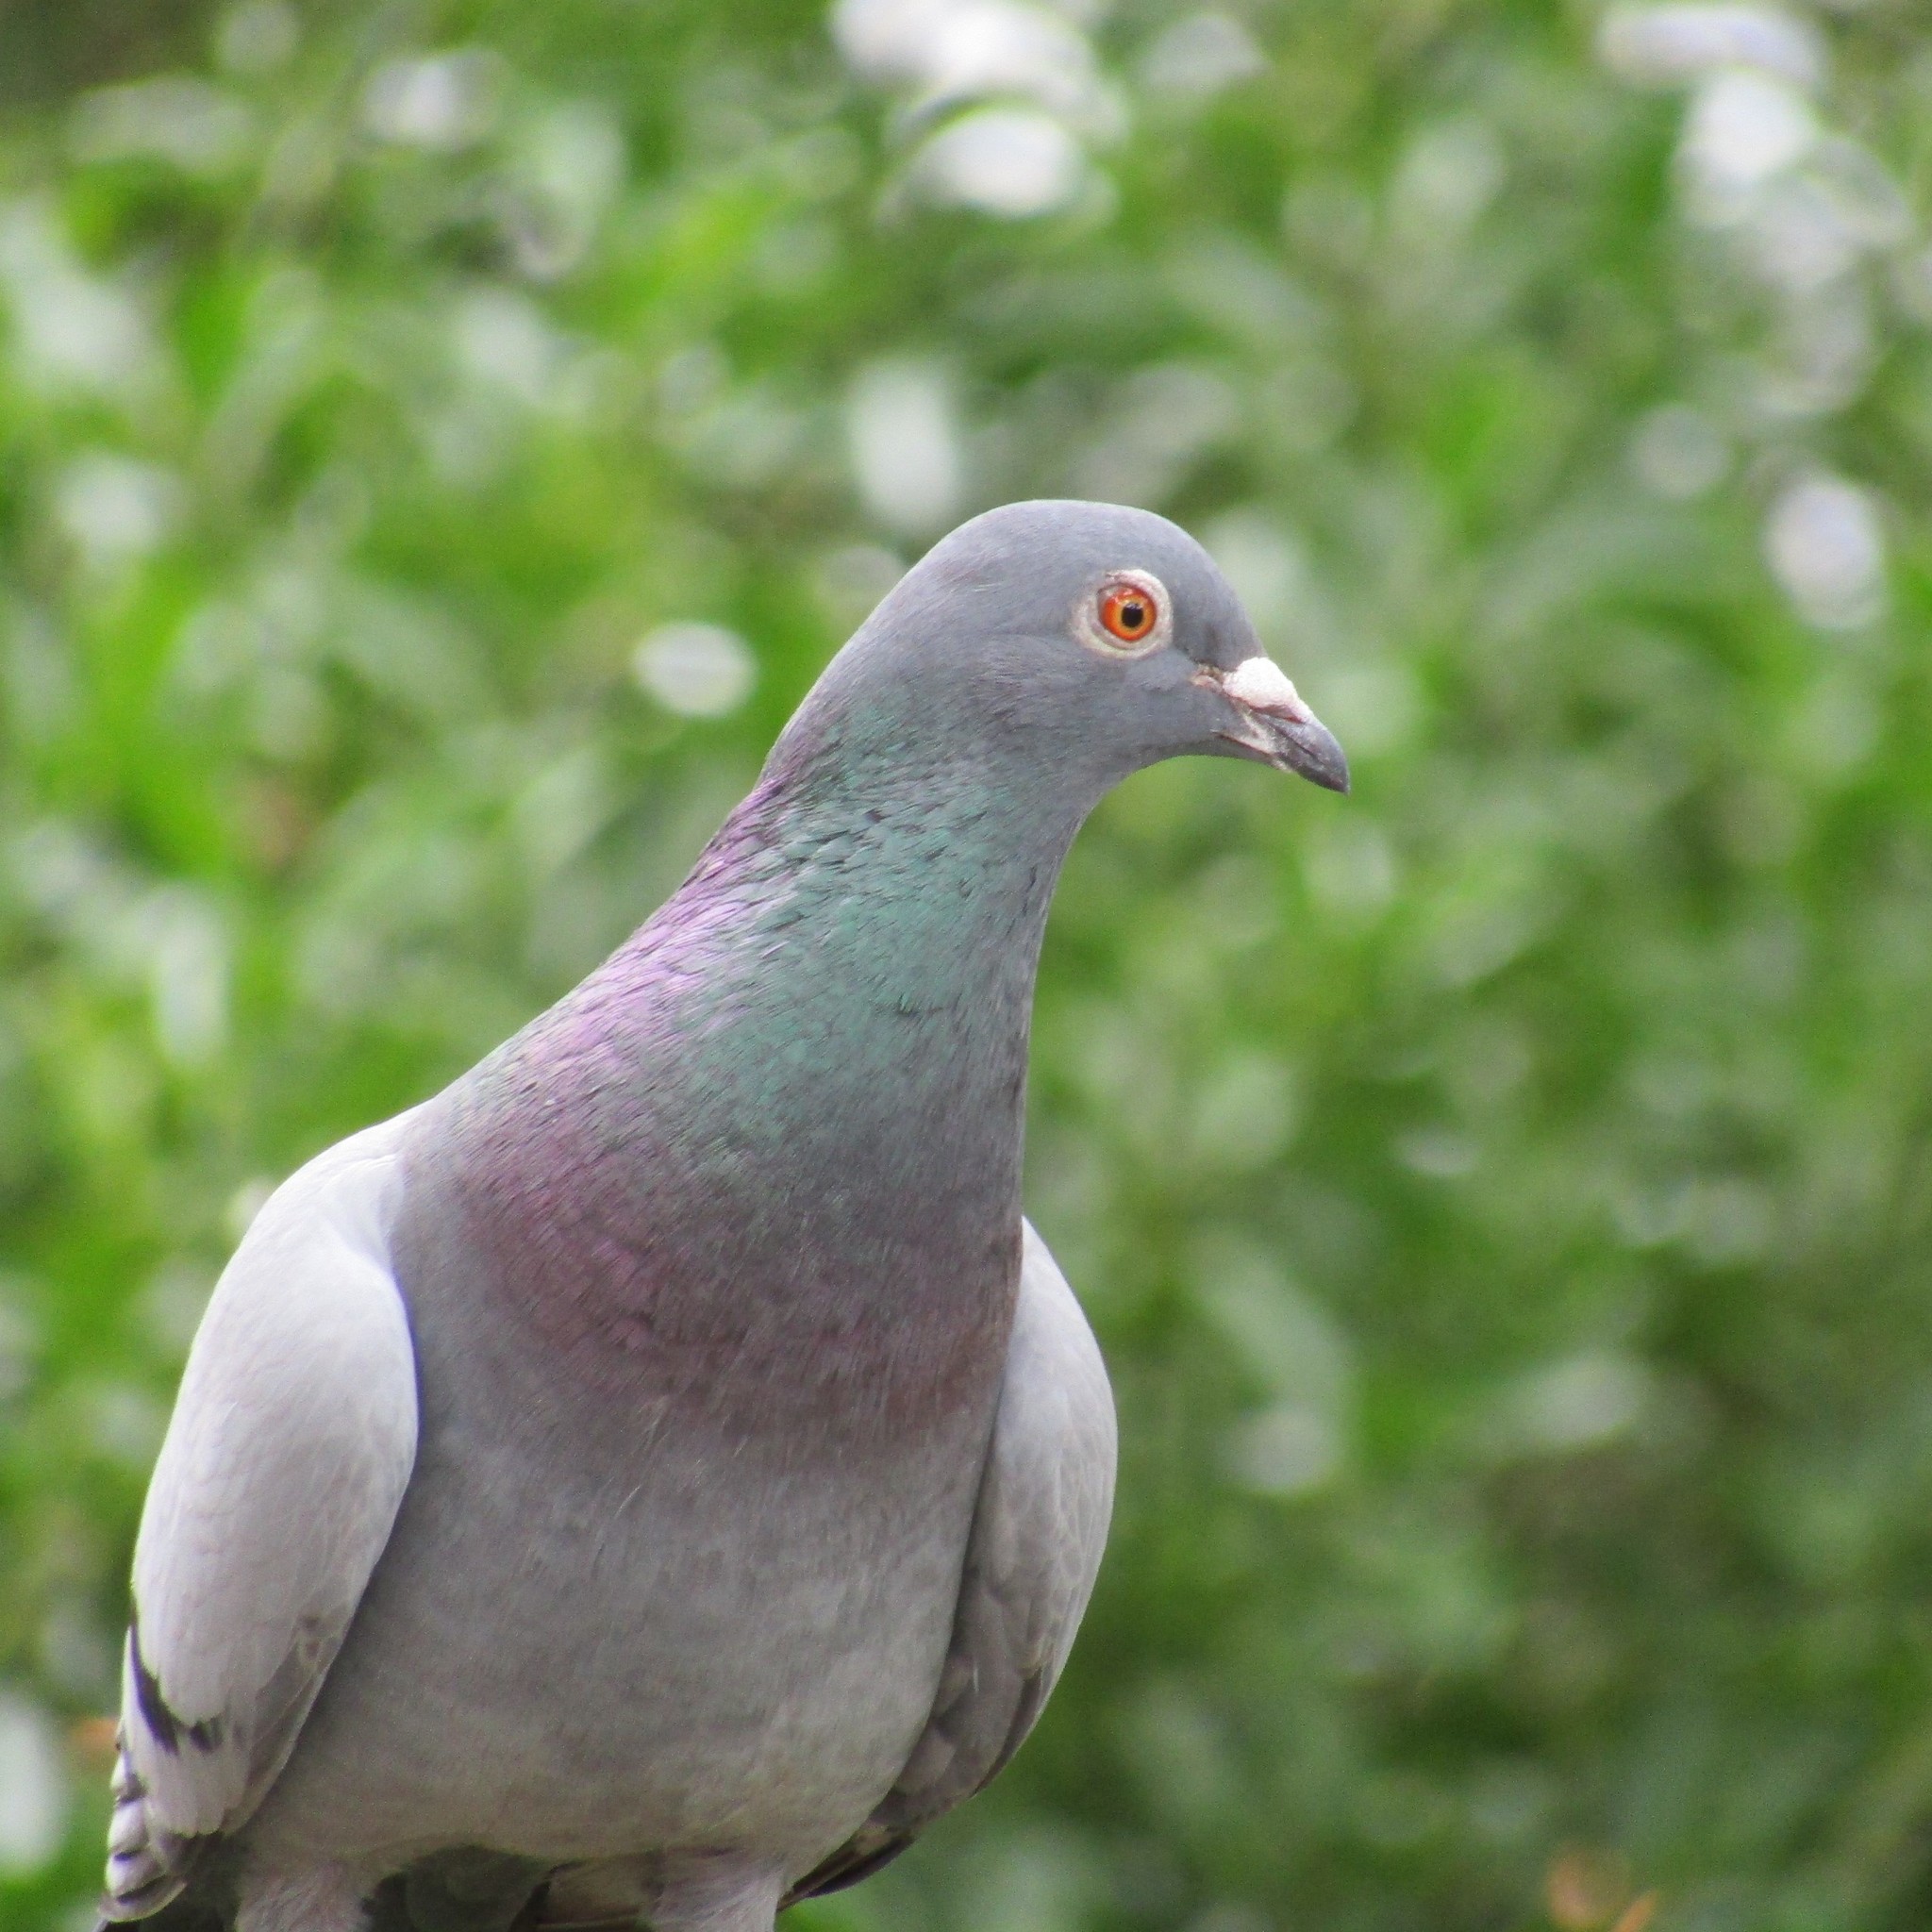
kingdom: Animalia
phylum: Chordata
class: Aves
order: Columbiformes
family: Columbidae
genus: Columba
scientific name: Columba livia
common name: Rock pigeon
